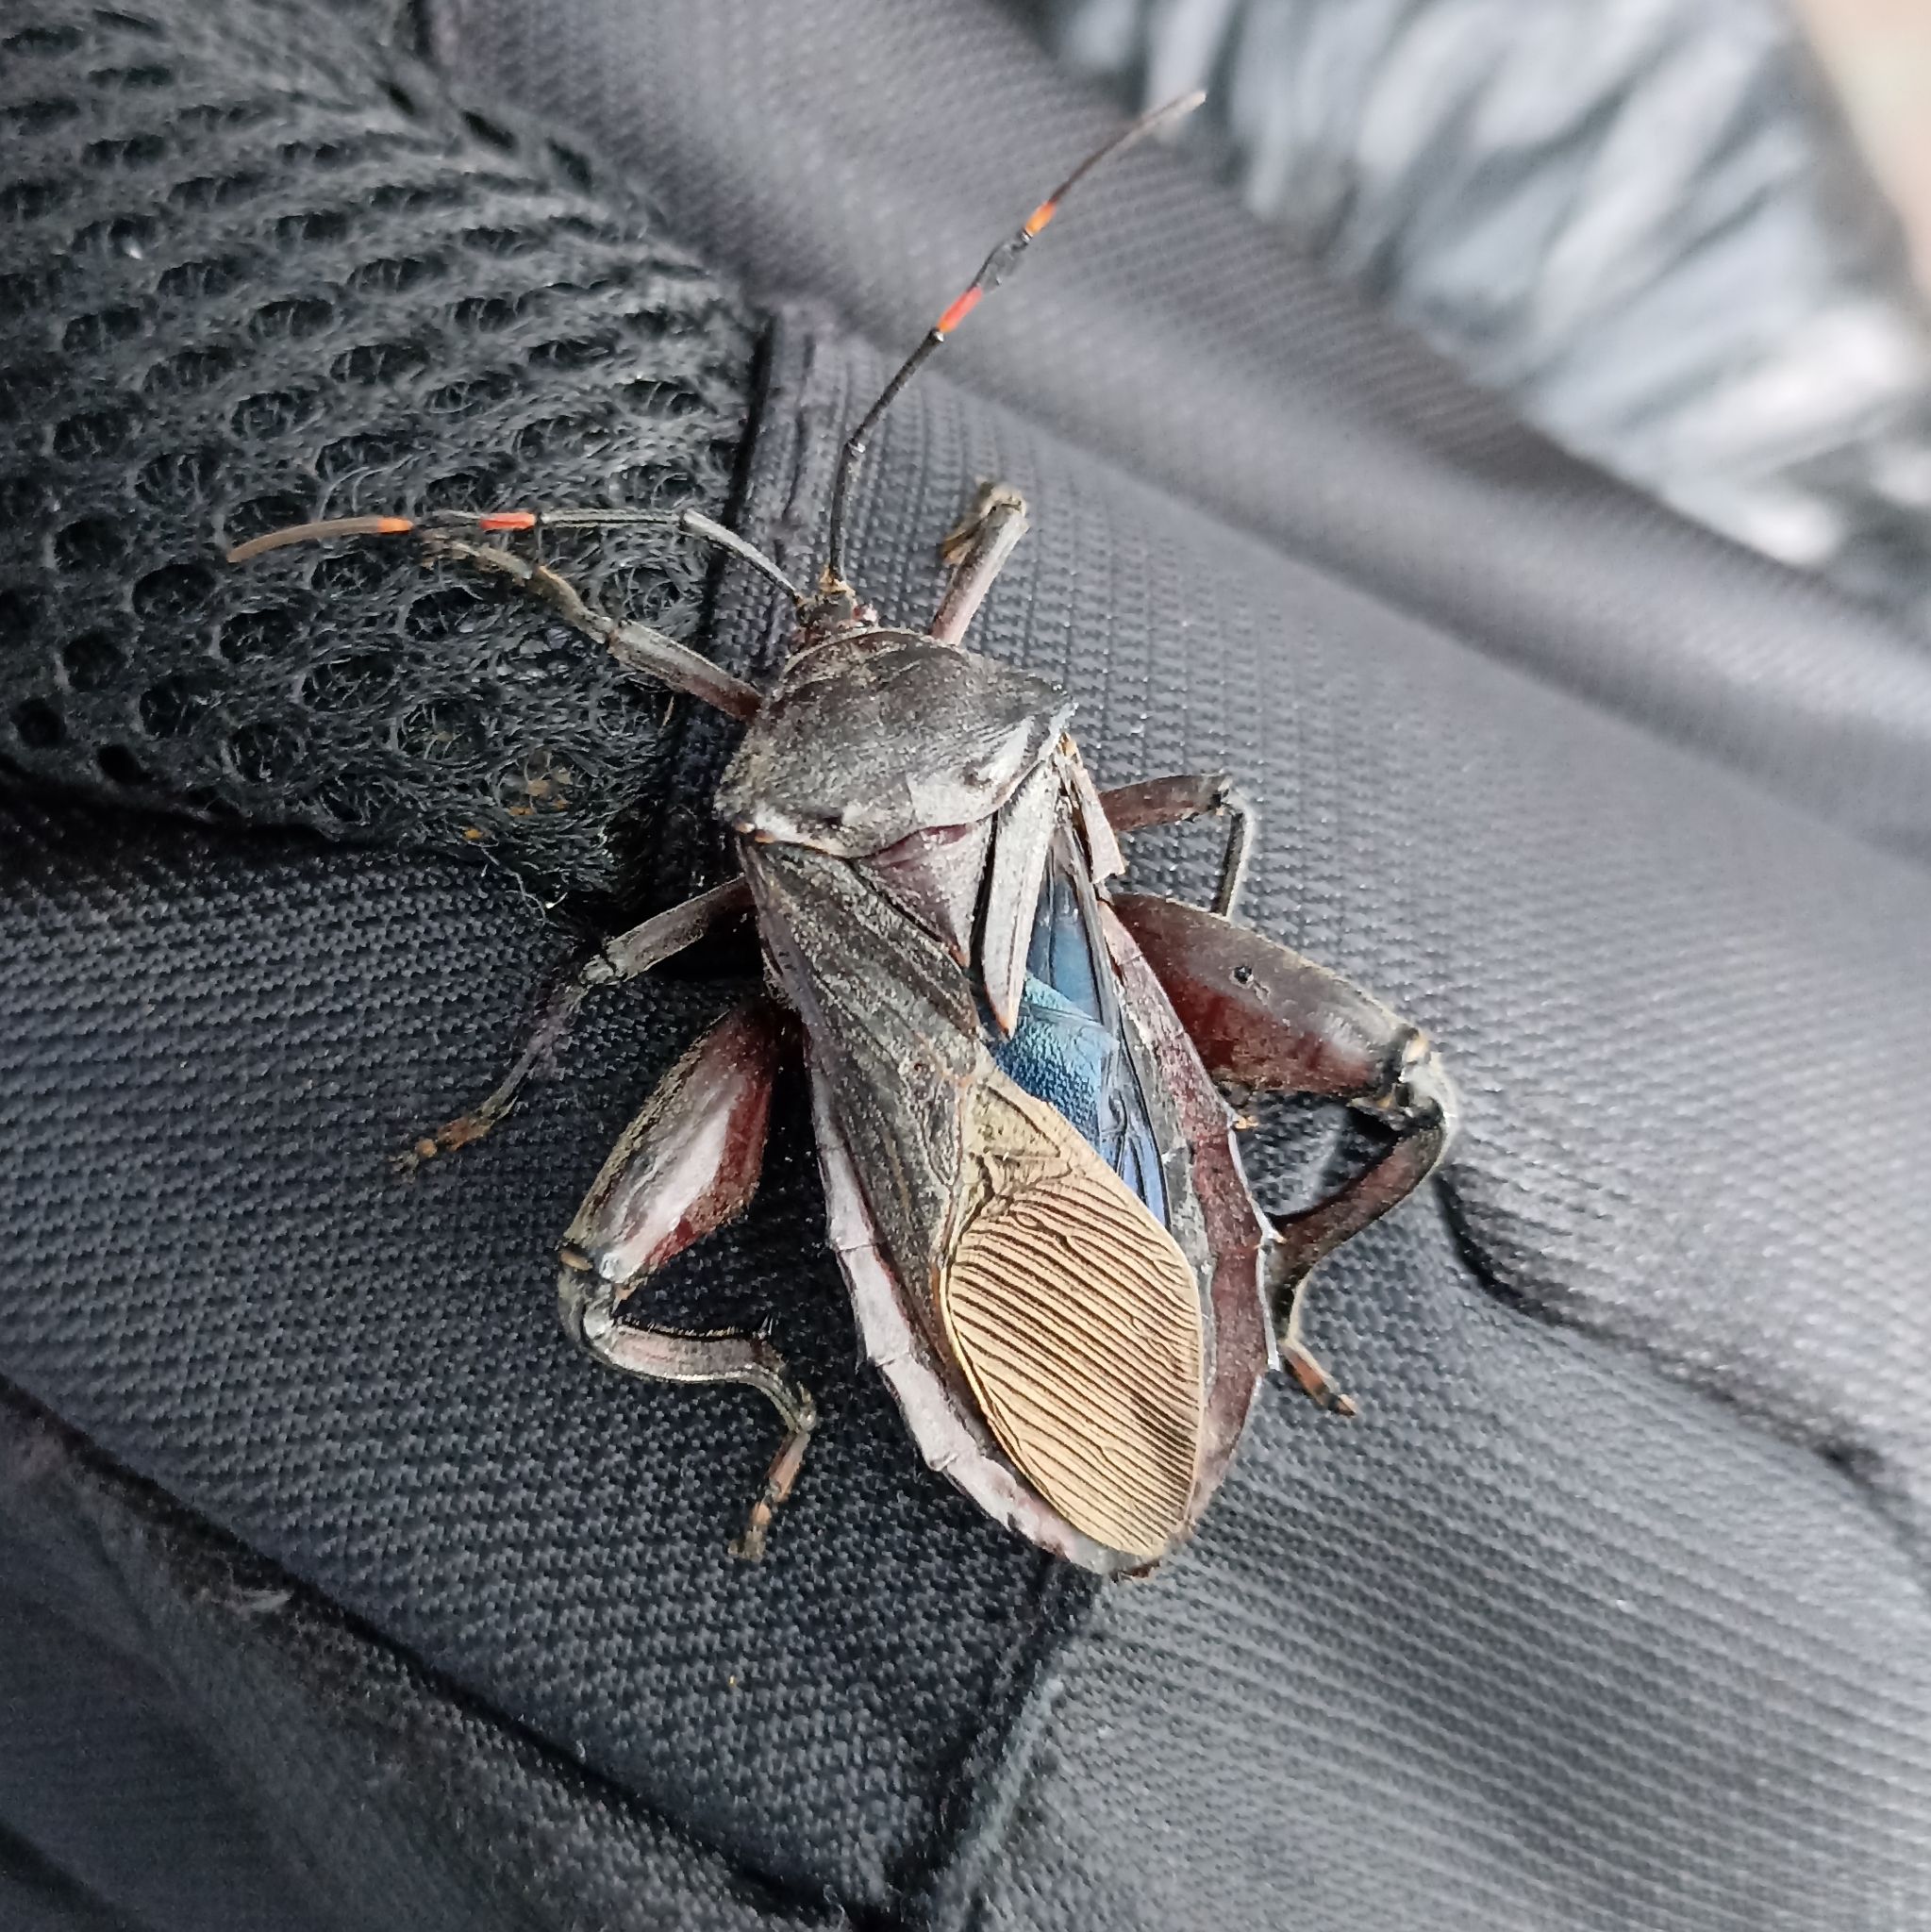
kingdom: Animalia
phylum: Arthropoda
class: Insecta
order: Hemiptera
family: Coreidae
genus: Pachylis
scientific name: Pachylis nervosus
